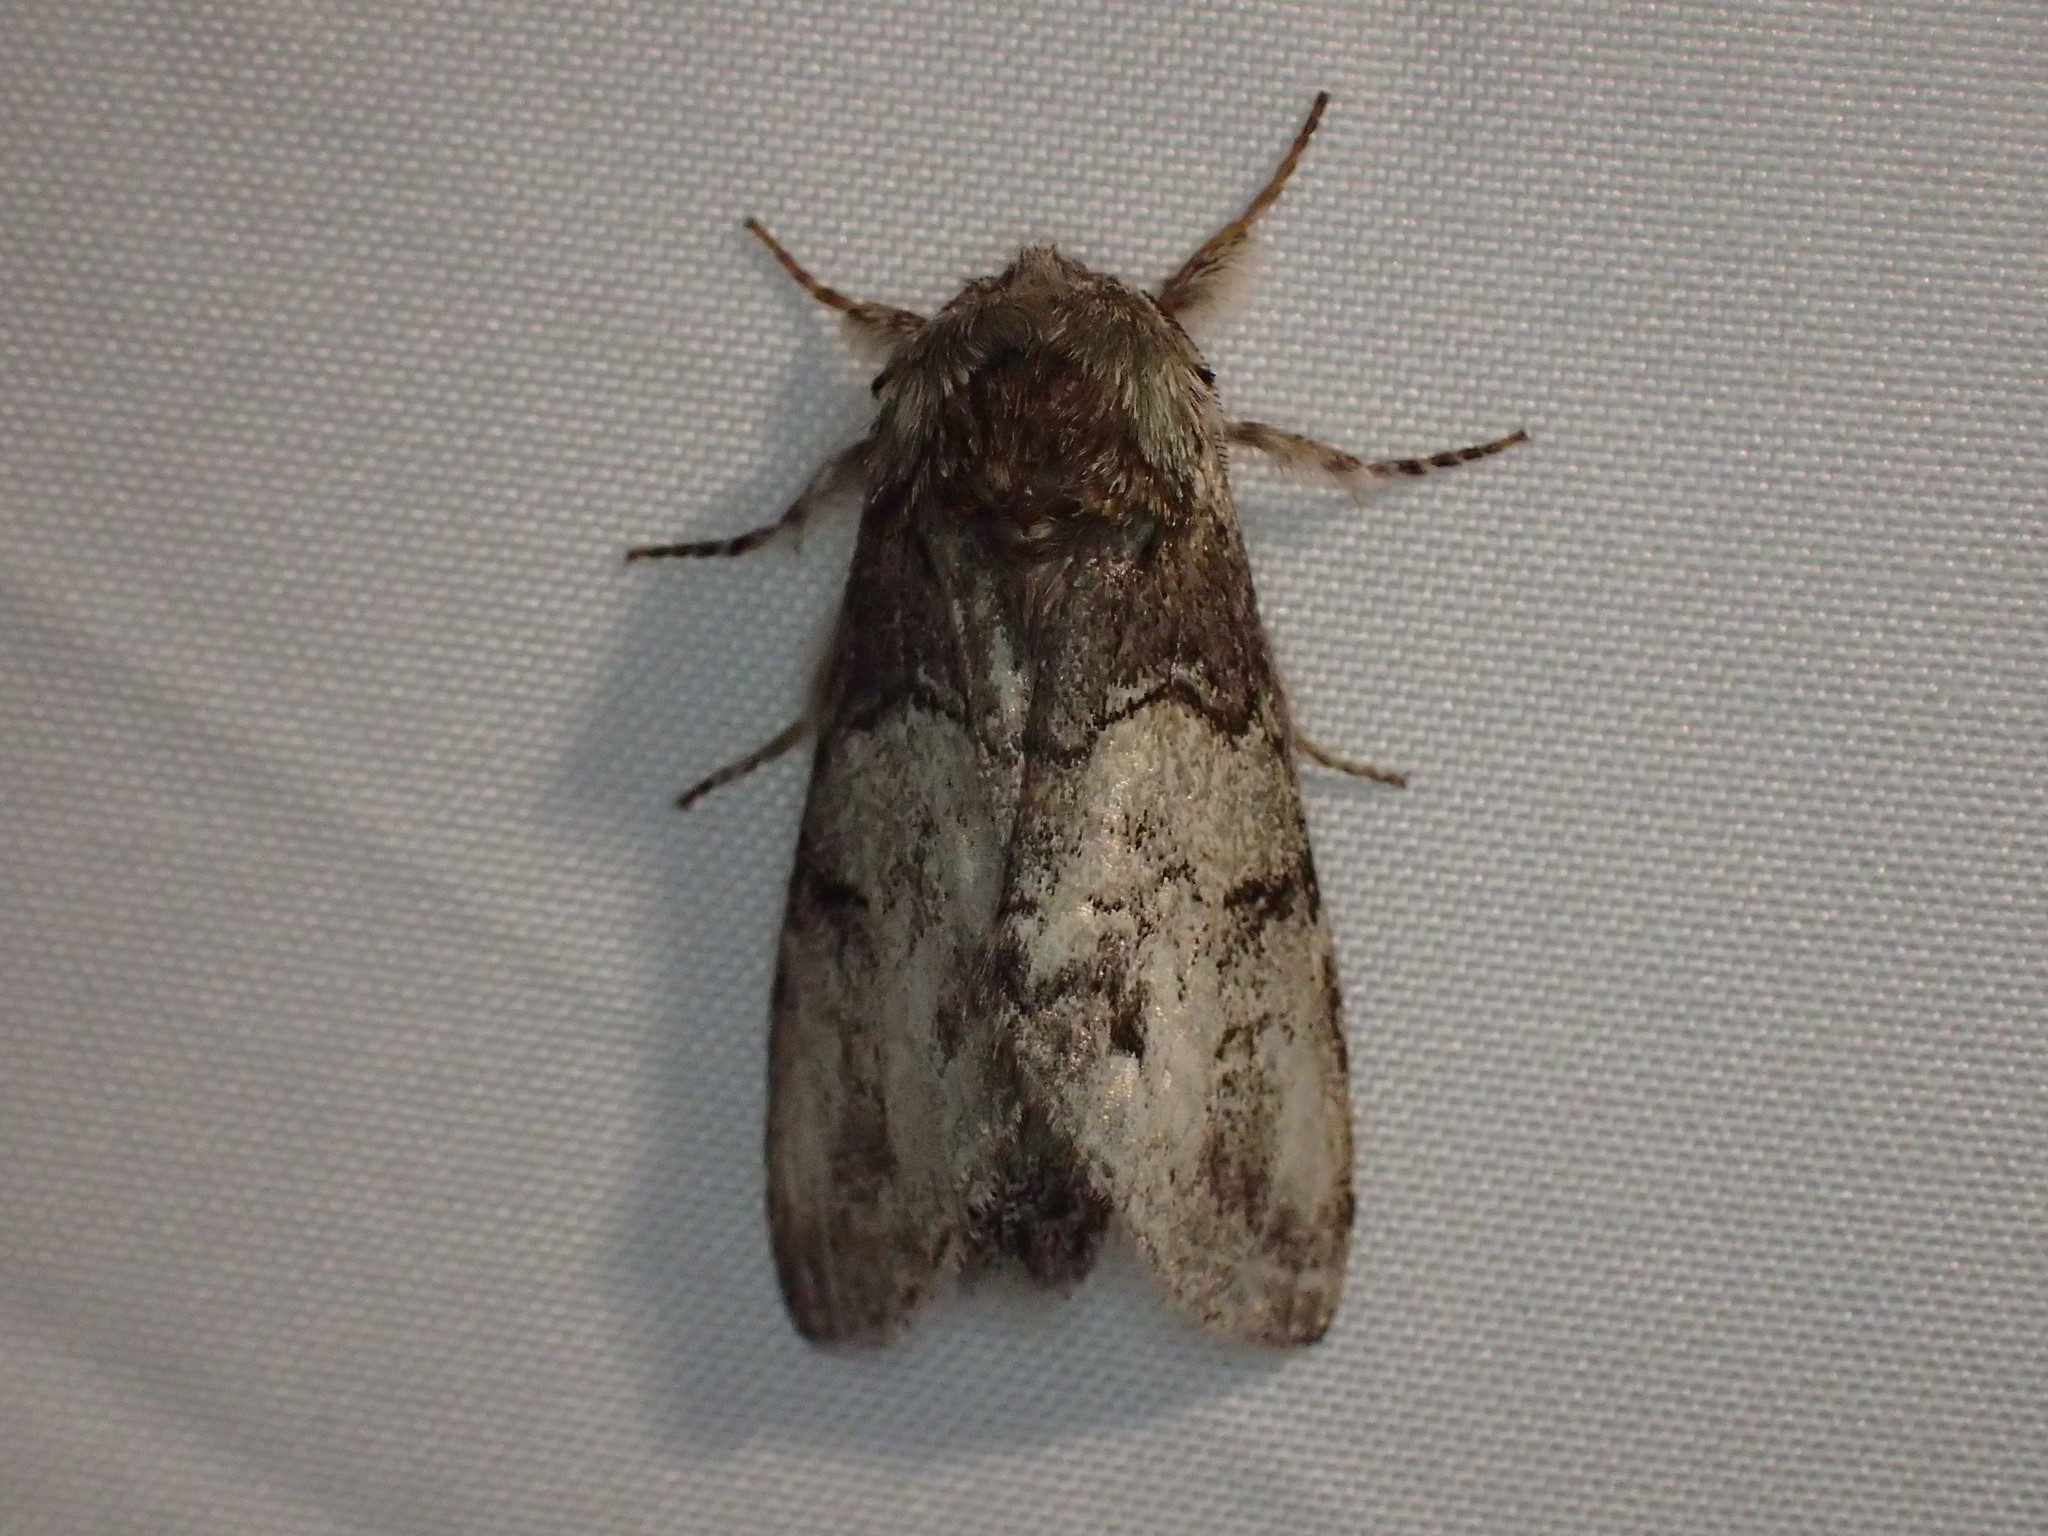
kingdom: Animalia
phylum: Arthropoda
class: Insecta
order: Lepidoptera
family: Notodontidae
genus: Macrurocampa
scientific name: Macrurocampa marthesia
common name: Mottled prominent
